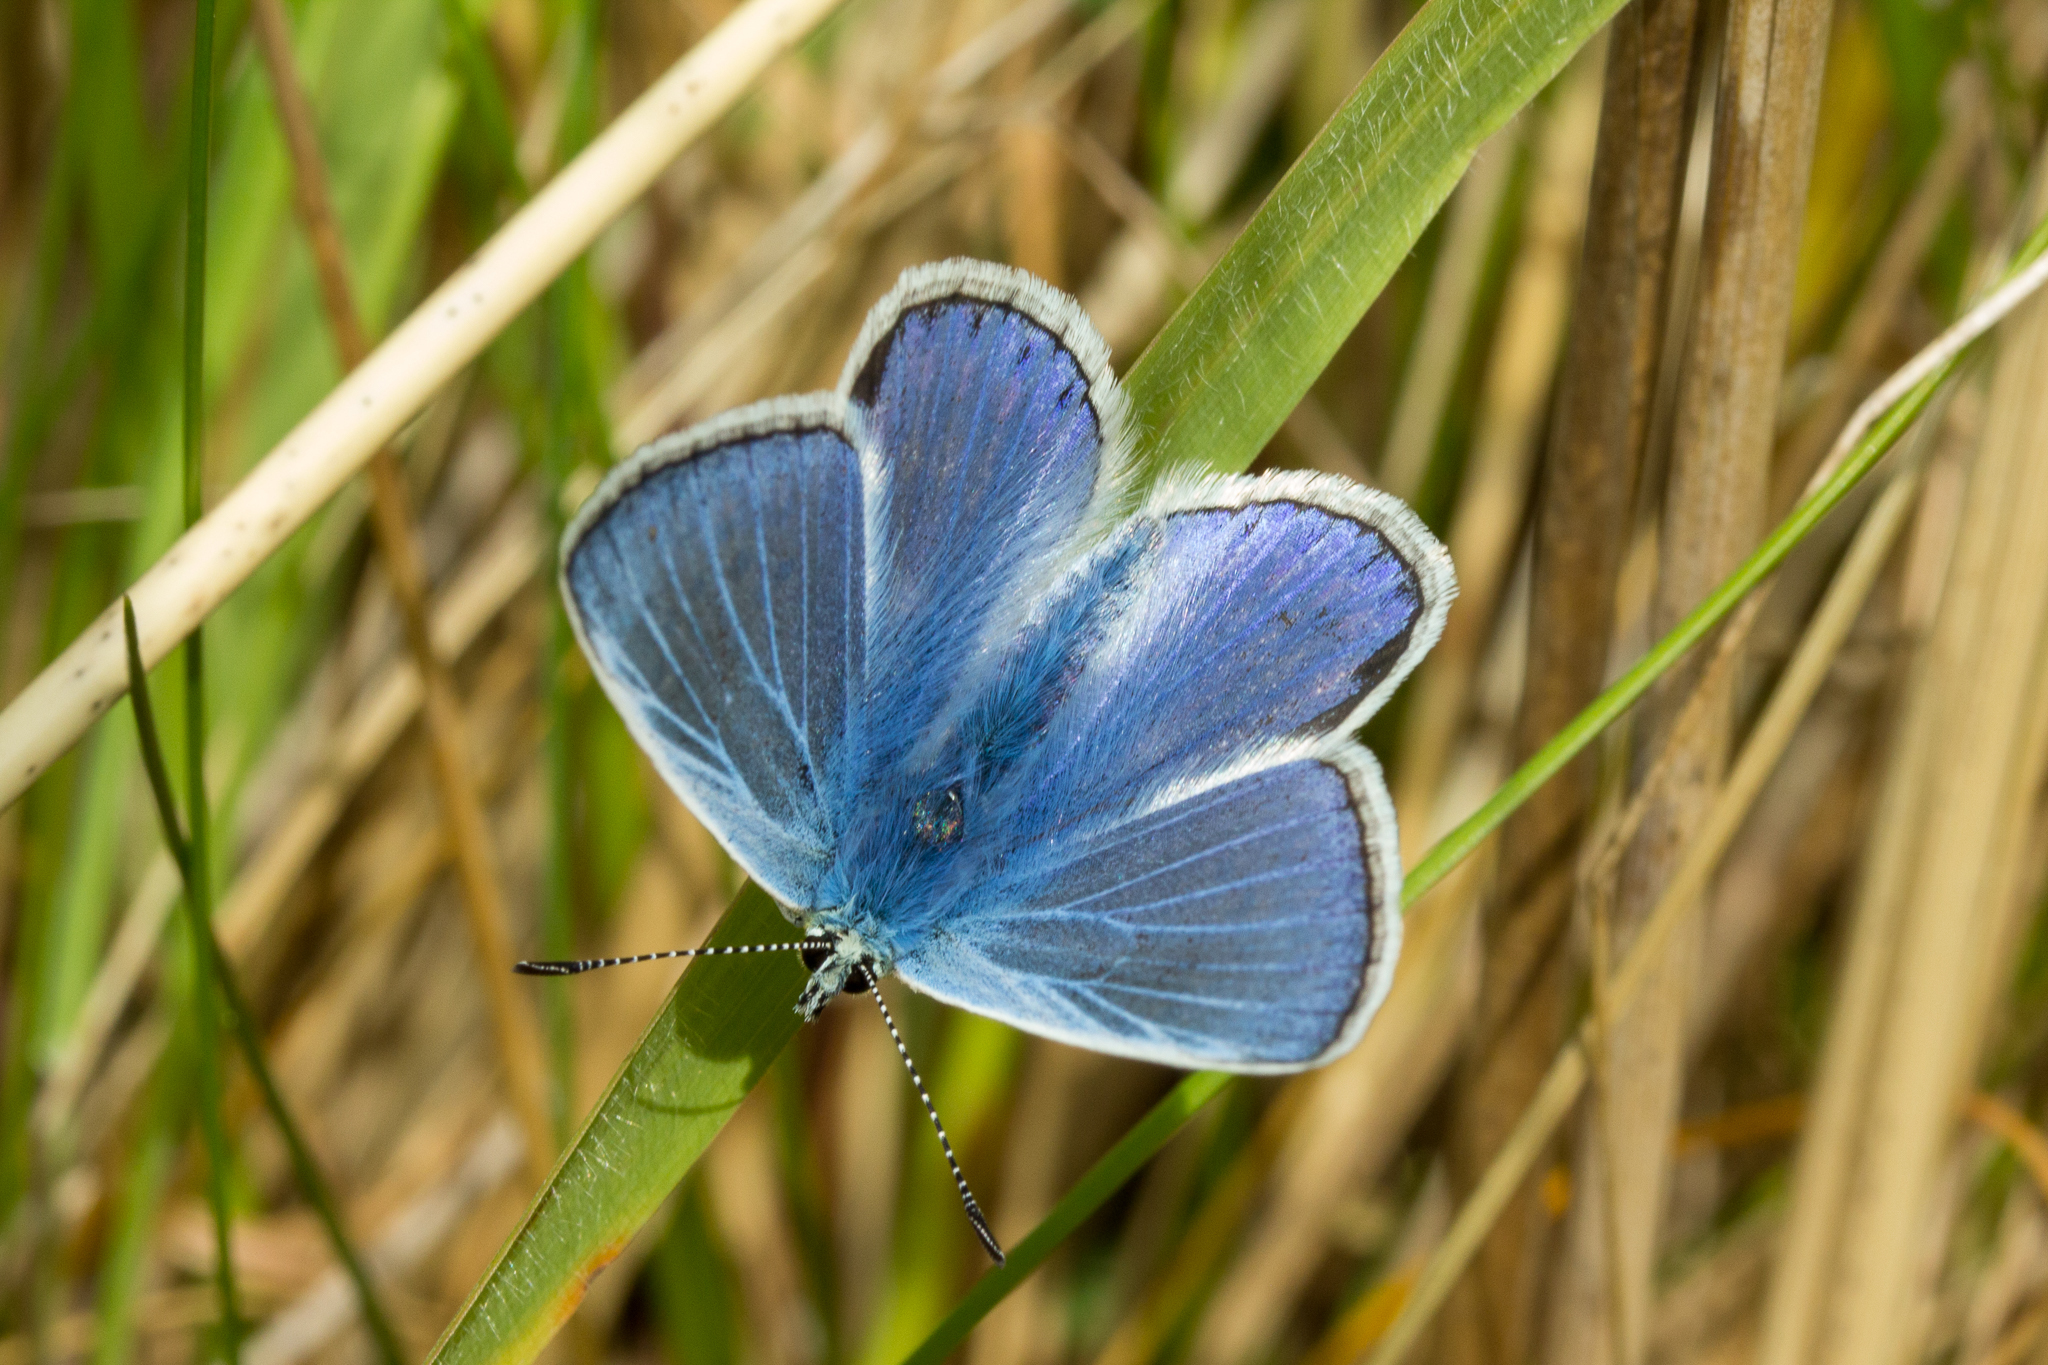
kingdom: Animalia
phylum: Arthropoda
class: Insecta
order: Lepidoptera
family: Lycaenidae
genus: Polyommatus
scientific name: Polyommatus icarus
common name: Common blue
